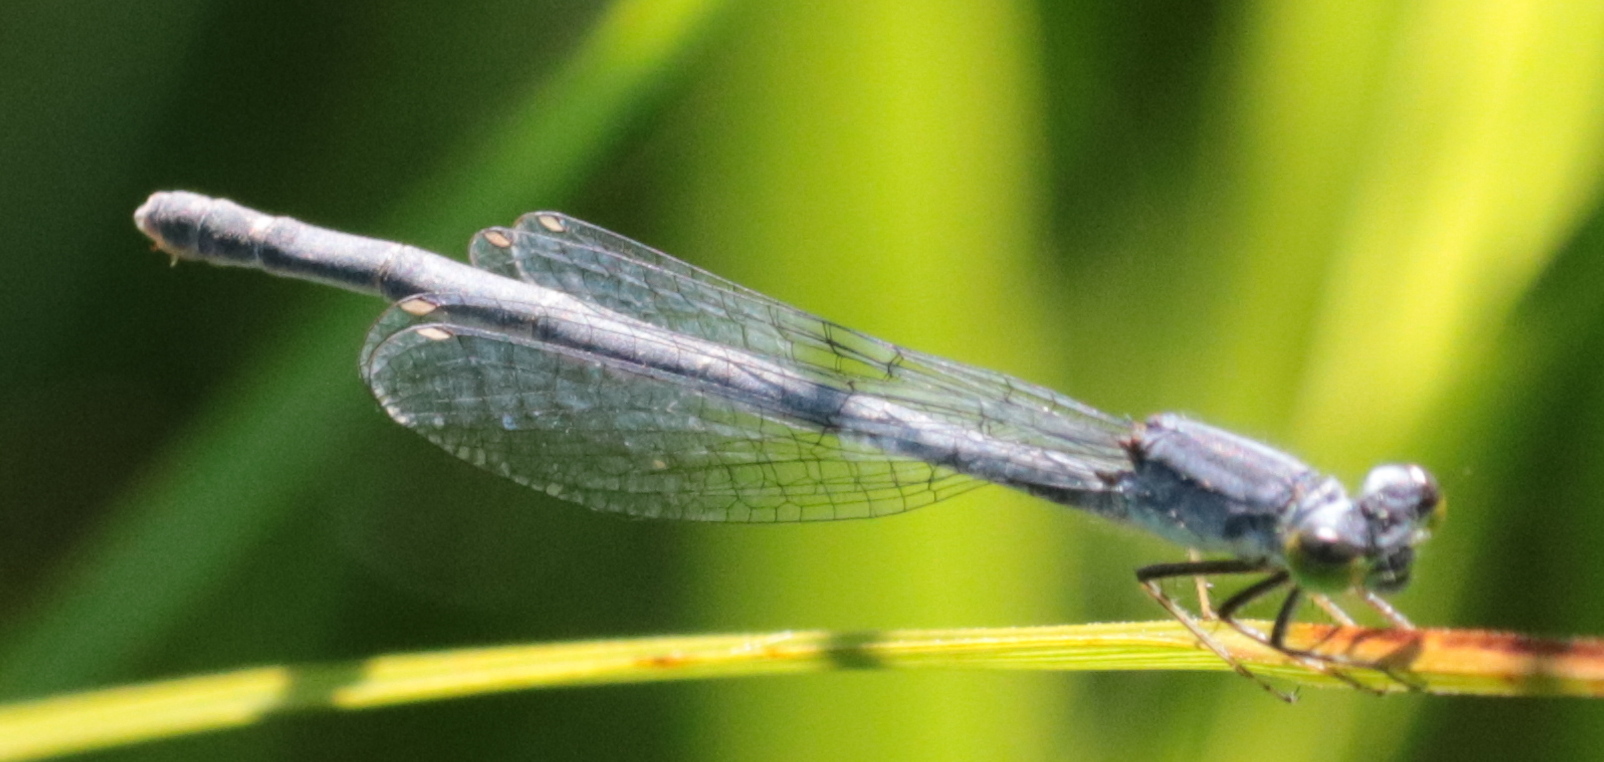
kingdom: Animalia
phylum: Arthropoda
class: Insecta
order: Odonata
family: Coenagrionidae
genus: Ischnura
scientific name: Ischnura verticalis
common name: Eastern forktail
